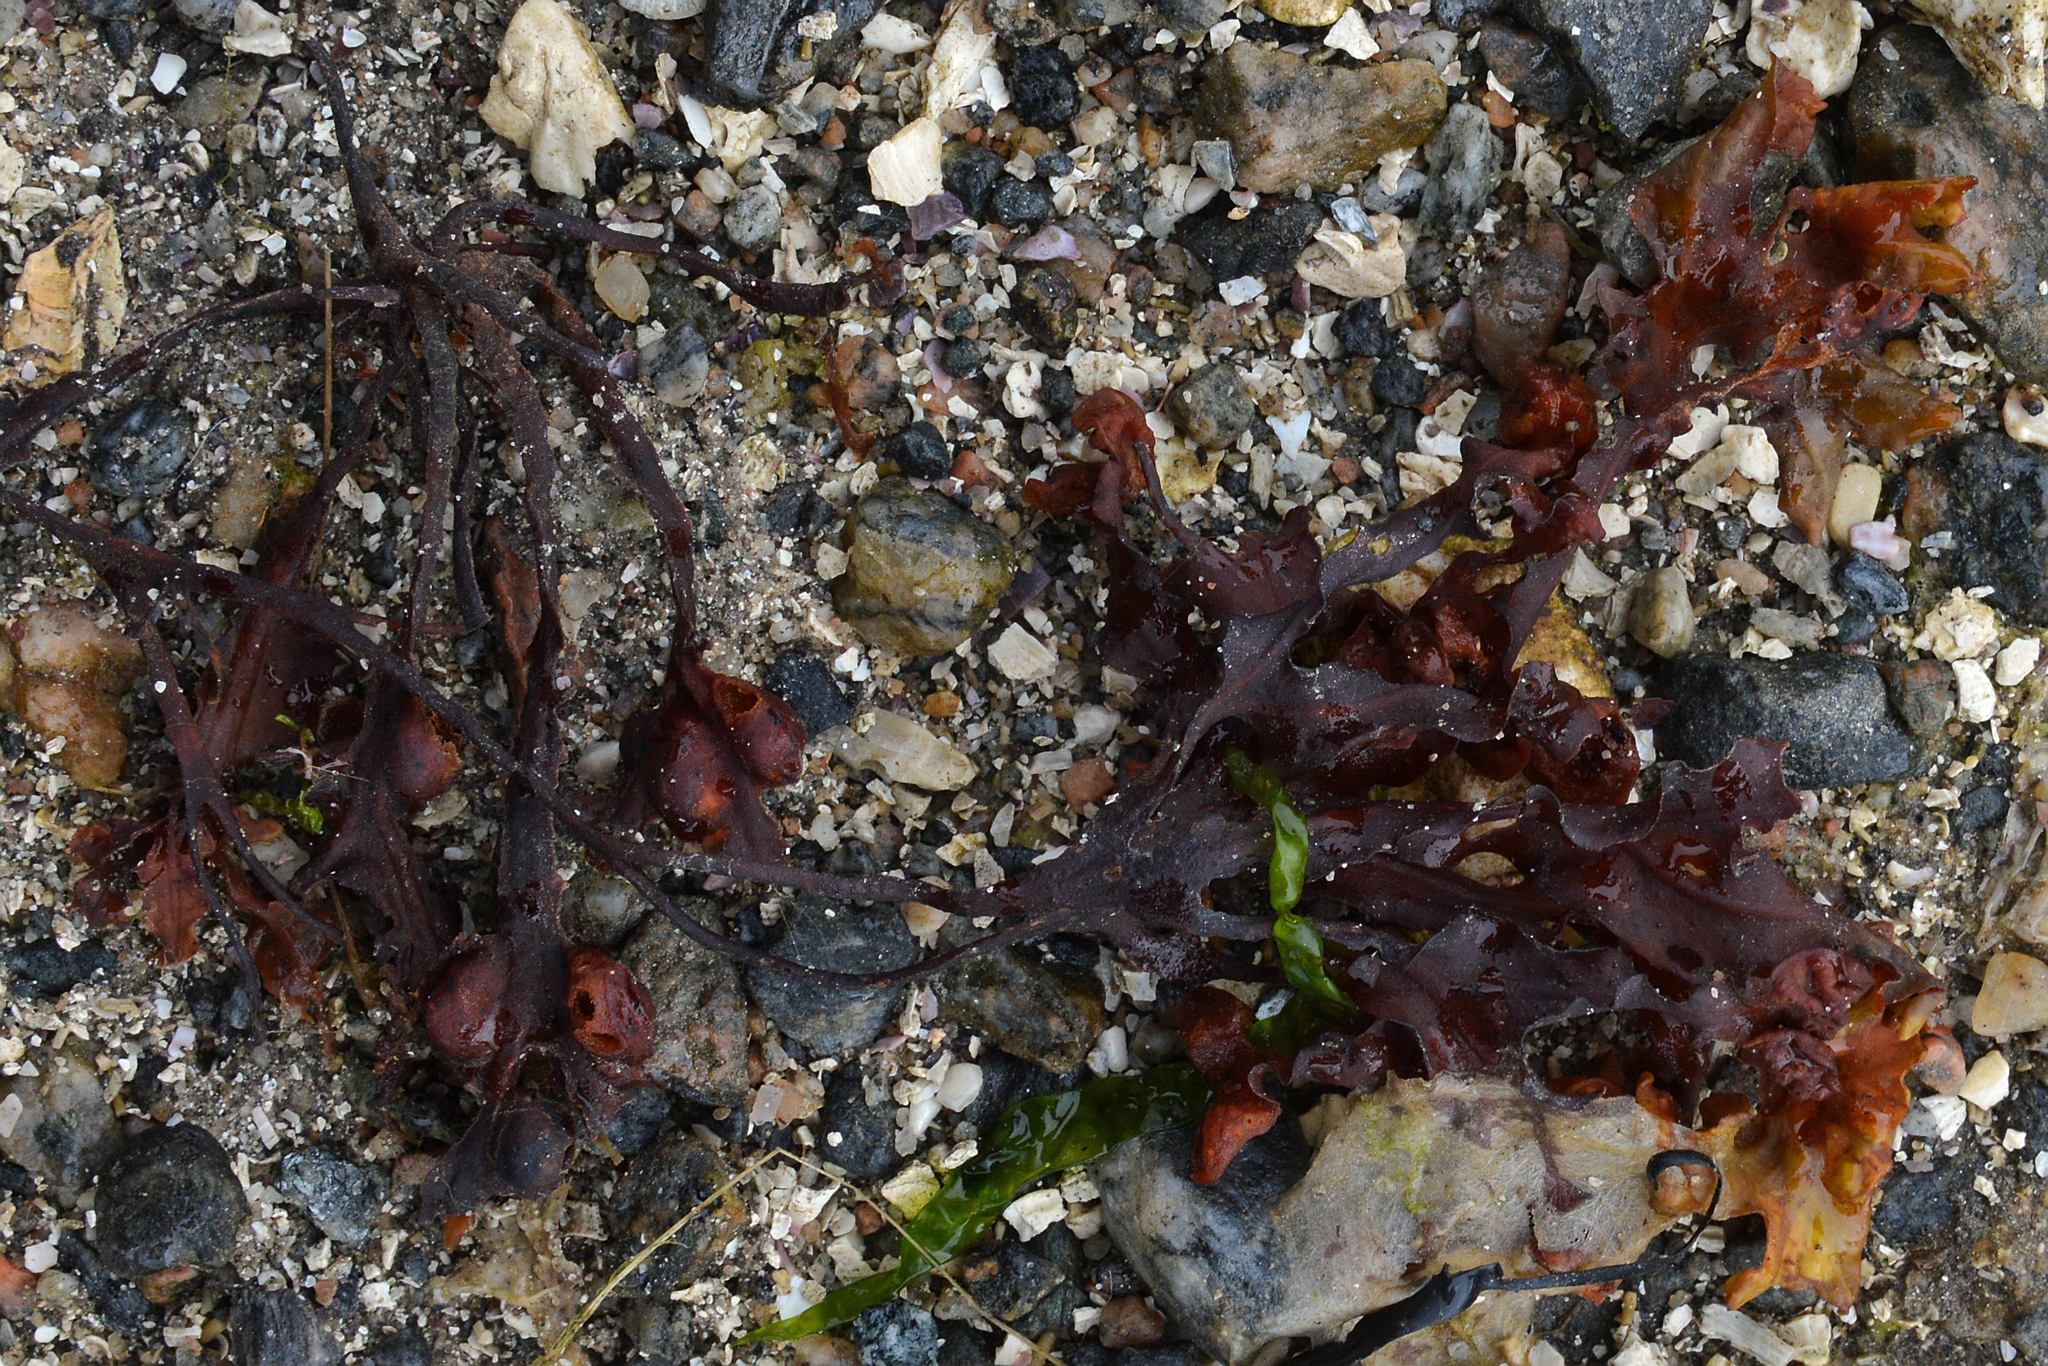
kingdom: Chromista
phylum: Ochrophyta
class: Phaeophyceae
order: Fucales
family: Fucaceae
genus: Fucus
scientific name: Fucus vesiculosus
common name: Bladder wrack
